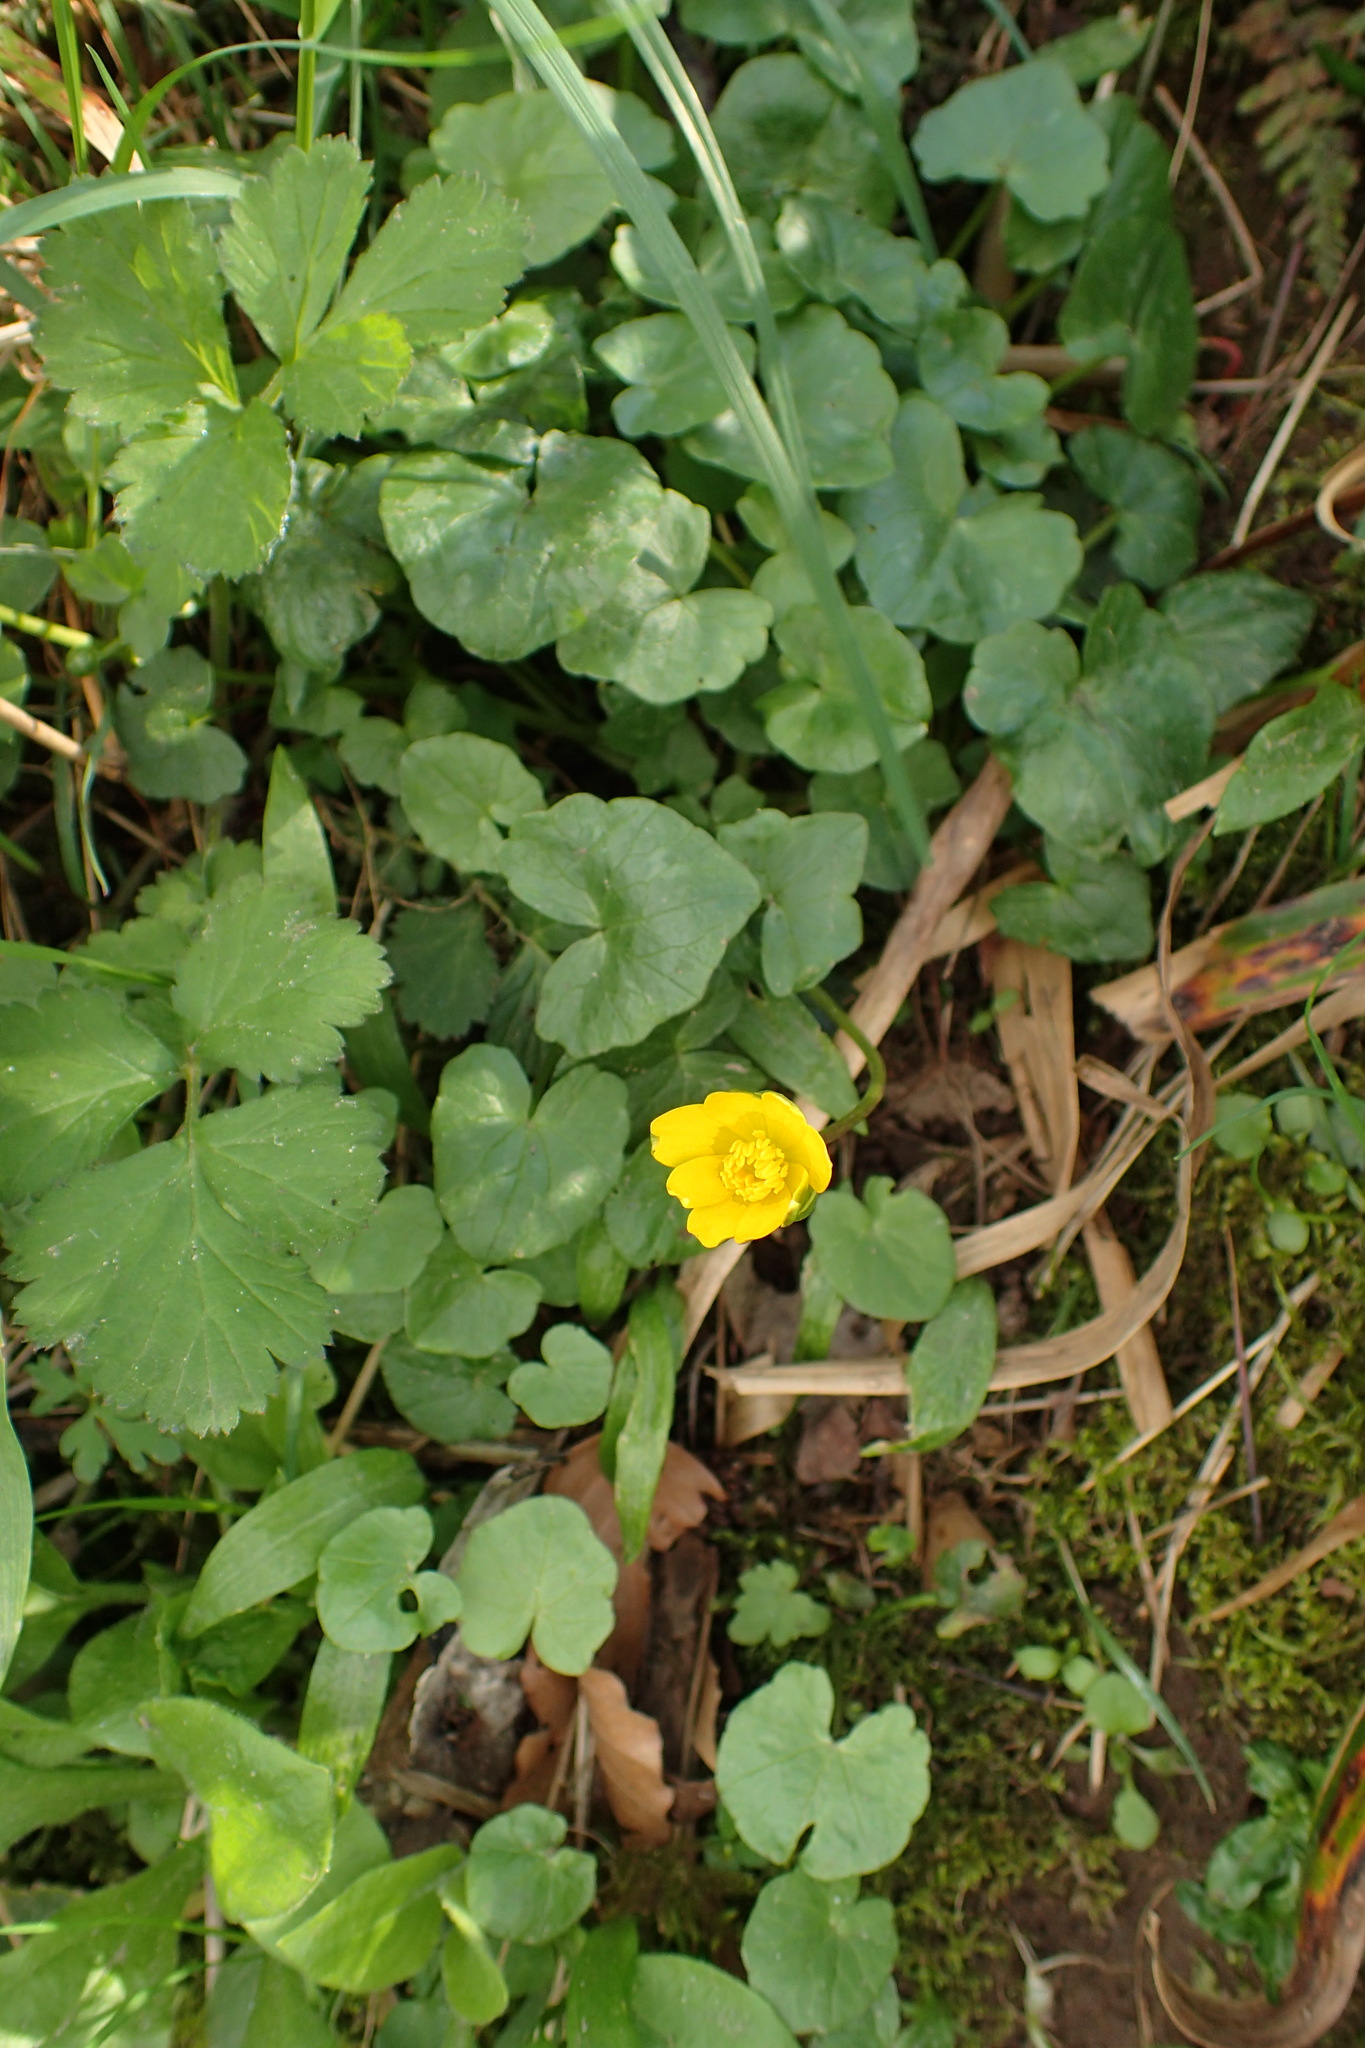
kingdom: Plantae
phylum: Tracheophyta
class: Magnoliopsida
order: Ranunculales
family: Ranunculaceae
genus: Ficaria
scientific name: Ficaria verna
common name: Lesser celandine
